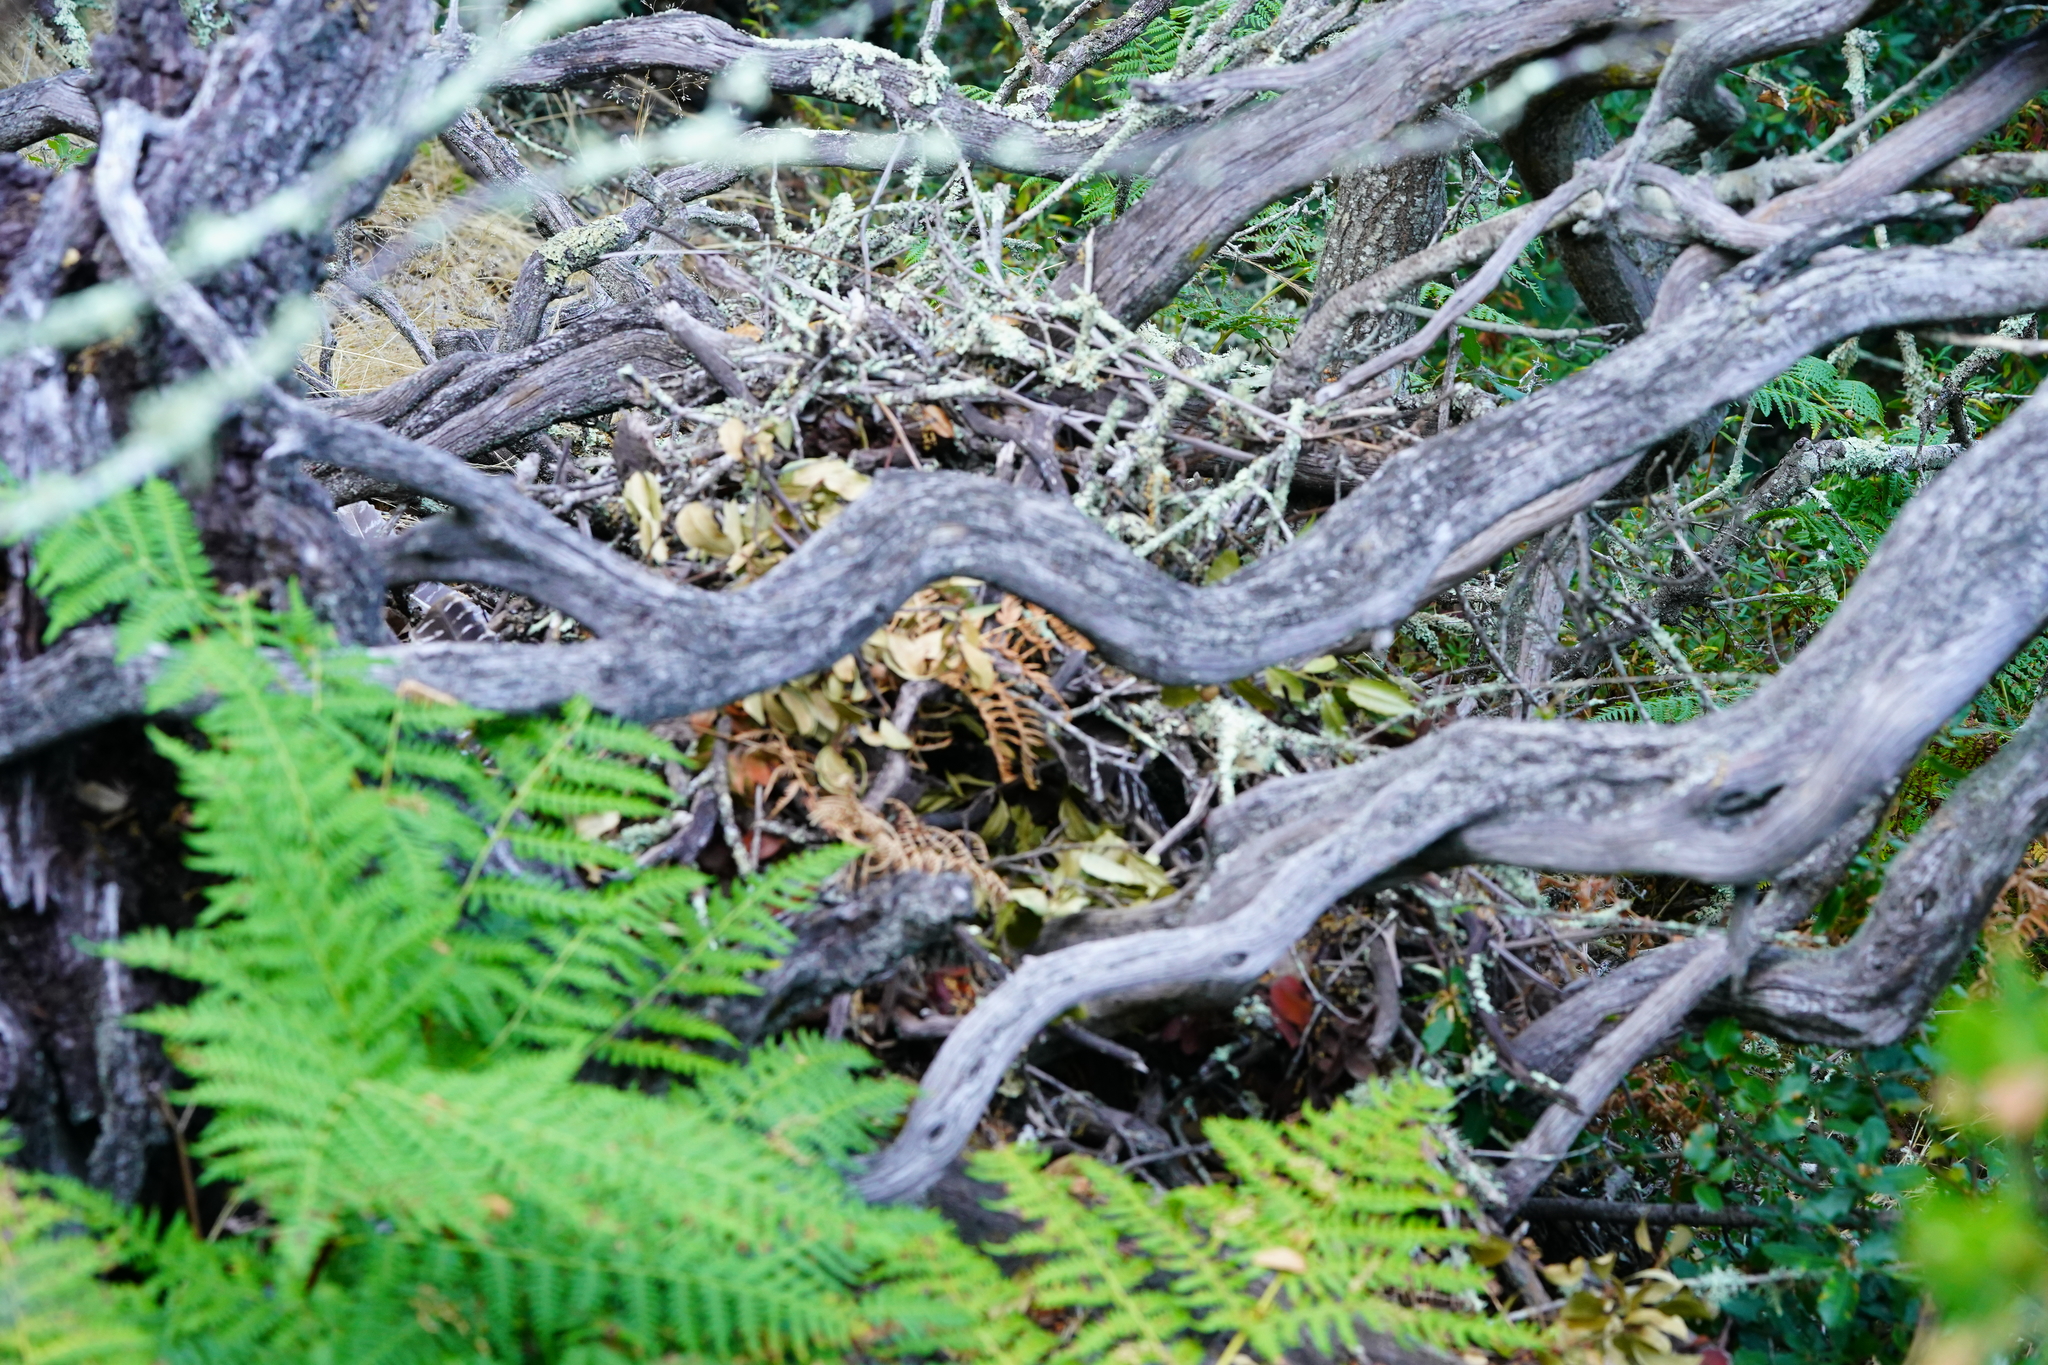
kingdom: Animalia
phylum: Chordata
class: Mammalia
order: Rodentia
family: Cricetidae
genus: Neotoma
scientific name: Neotoma fuscipes
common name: Dusky-footed woodrat
